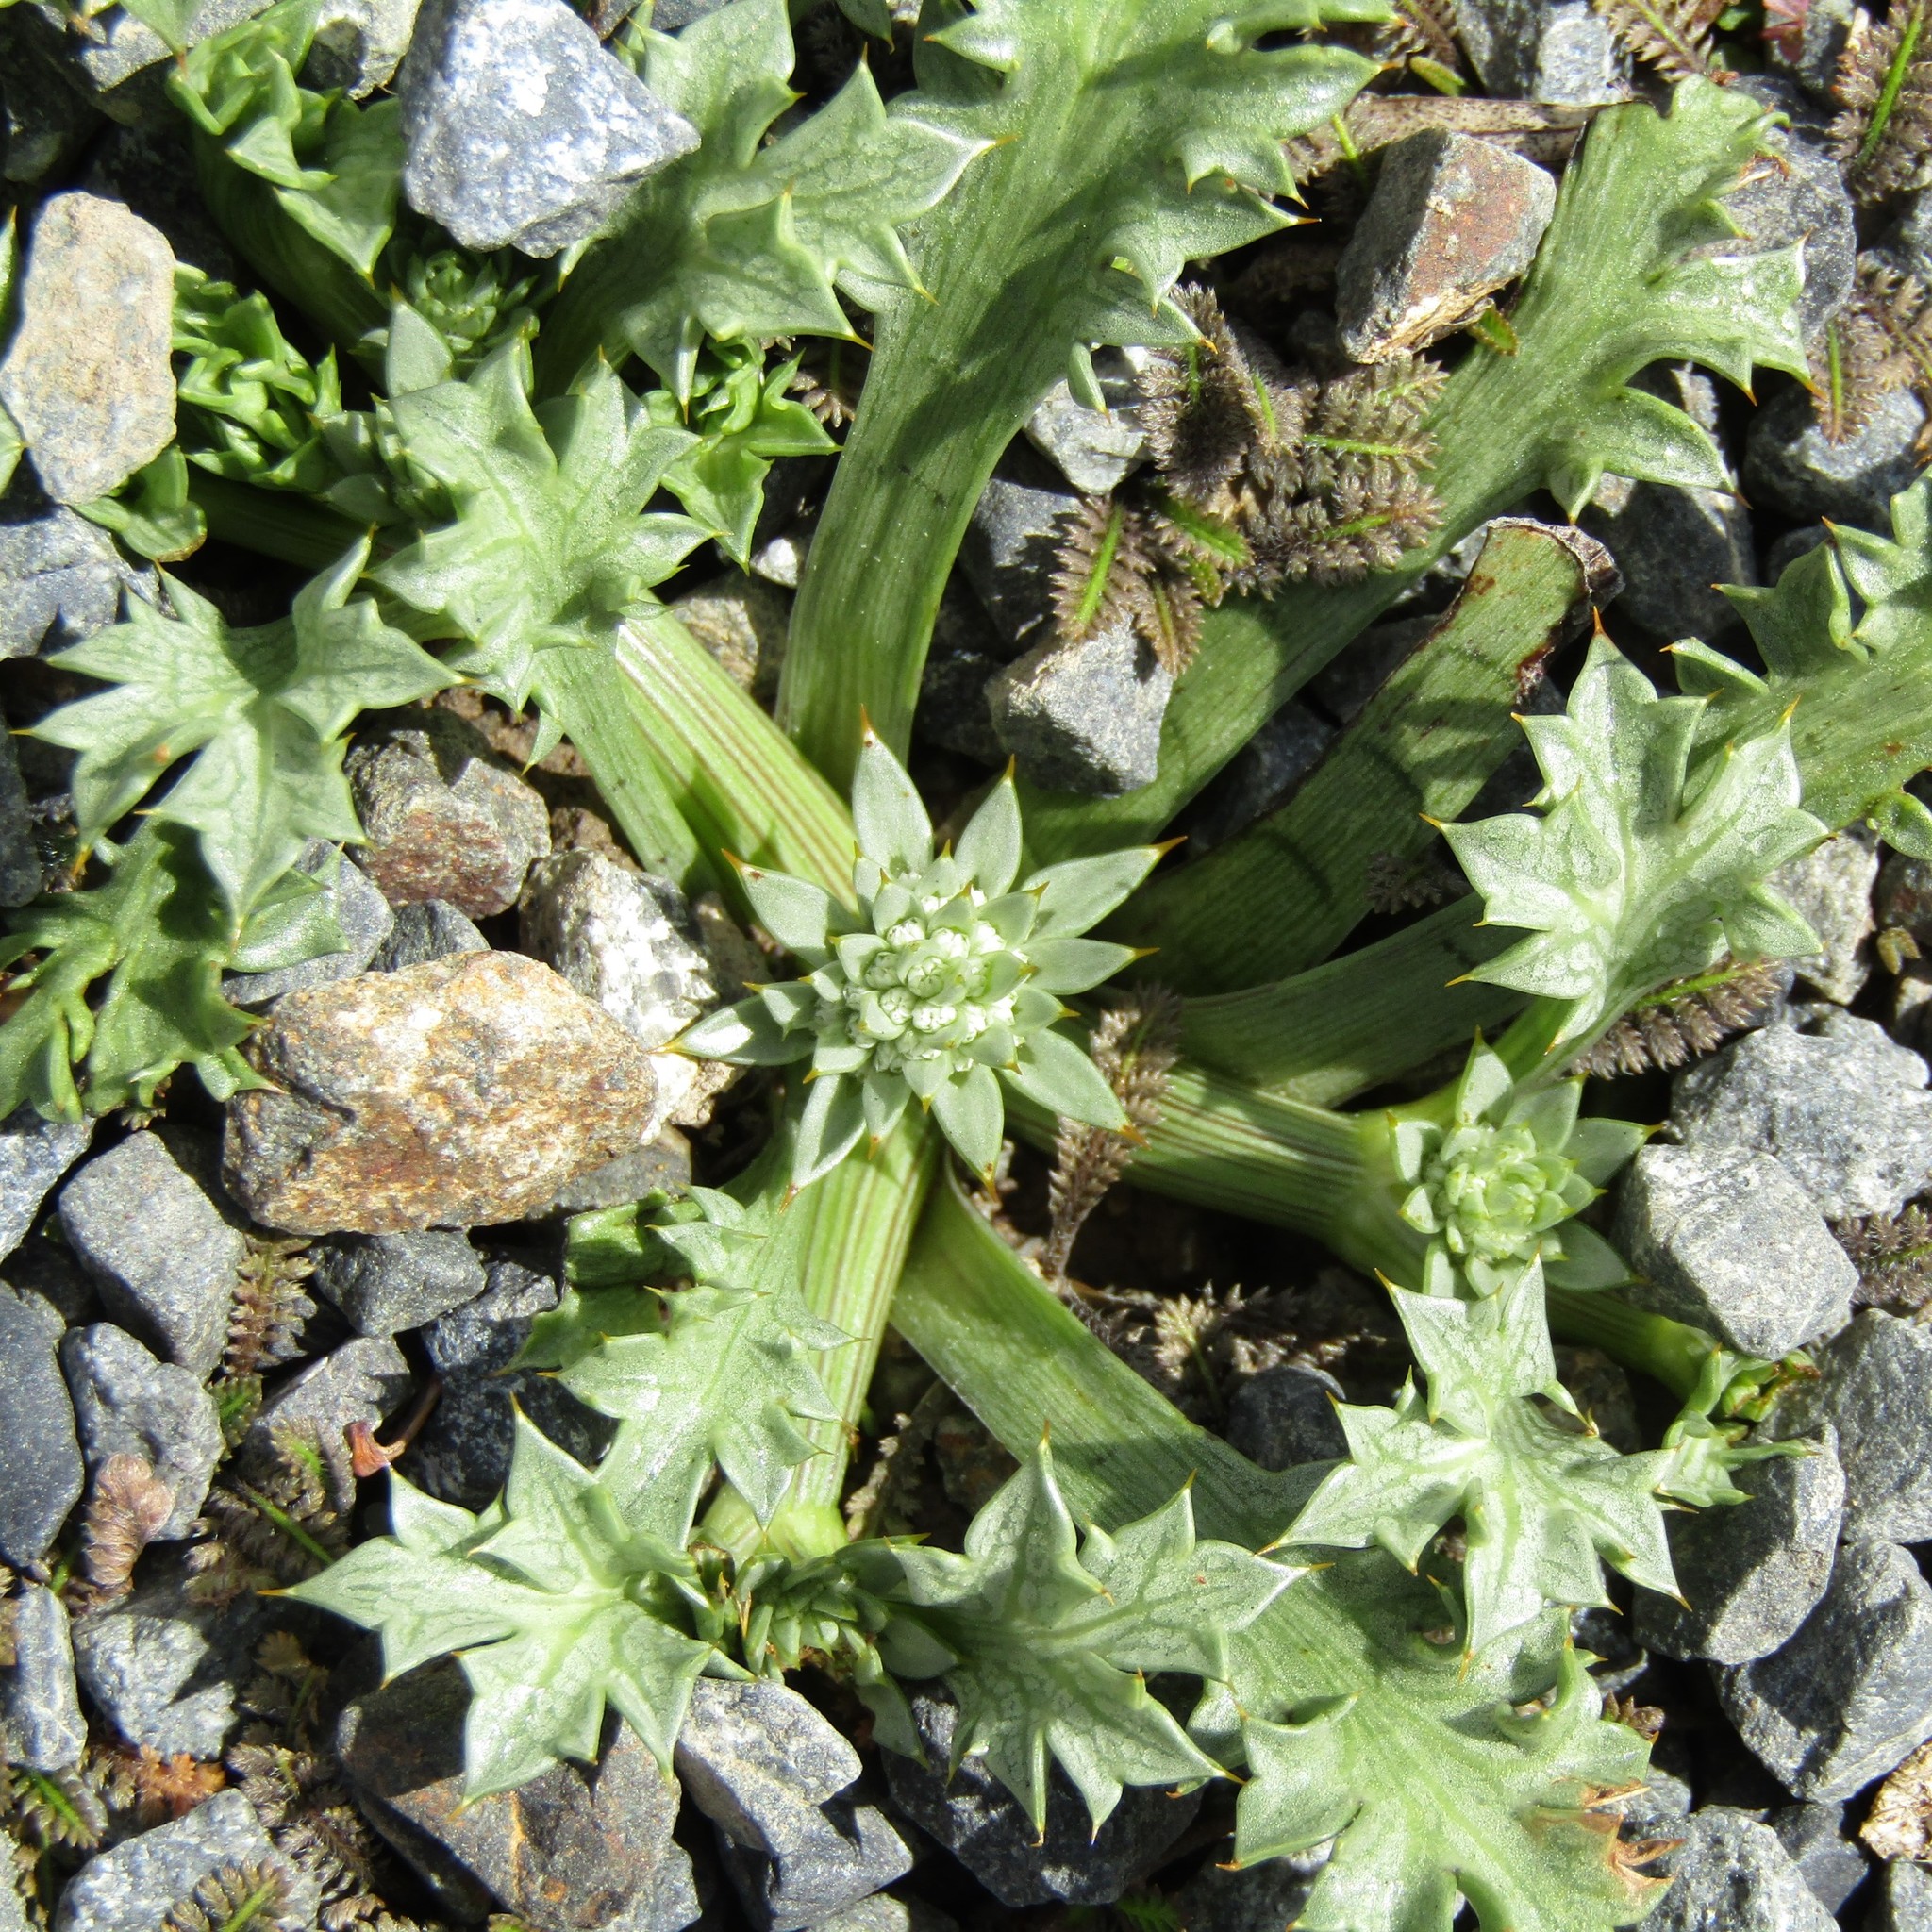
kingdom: Plantae
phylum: Tracheophyta
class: Magnoliopsida
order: Apiales
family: Apiaceae
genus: Eryngium
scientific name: Eryngium vesiculosum
